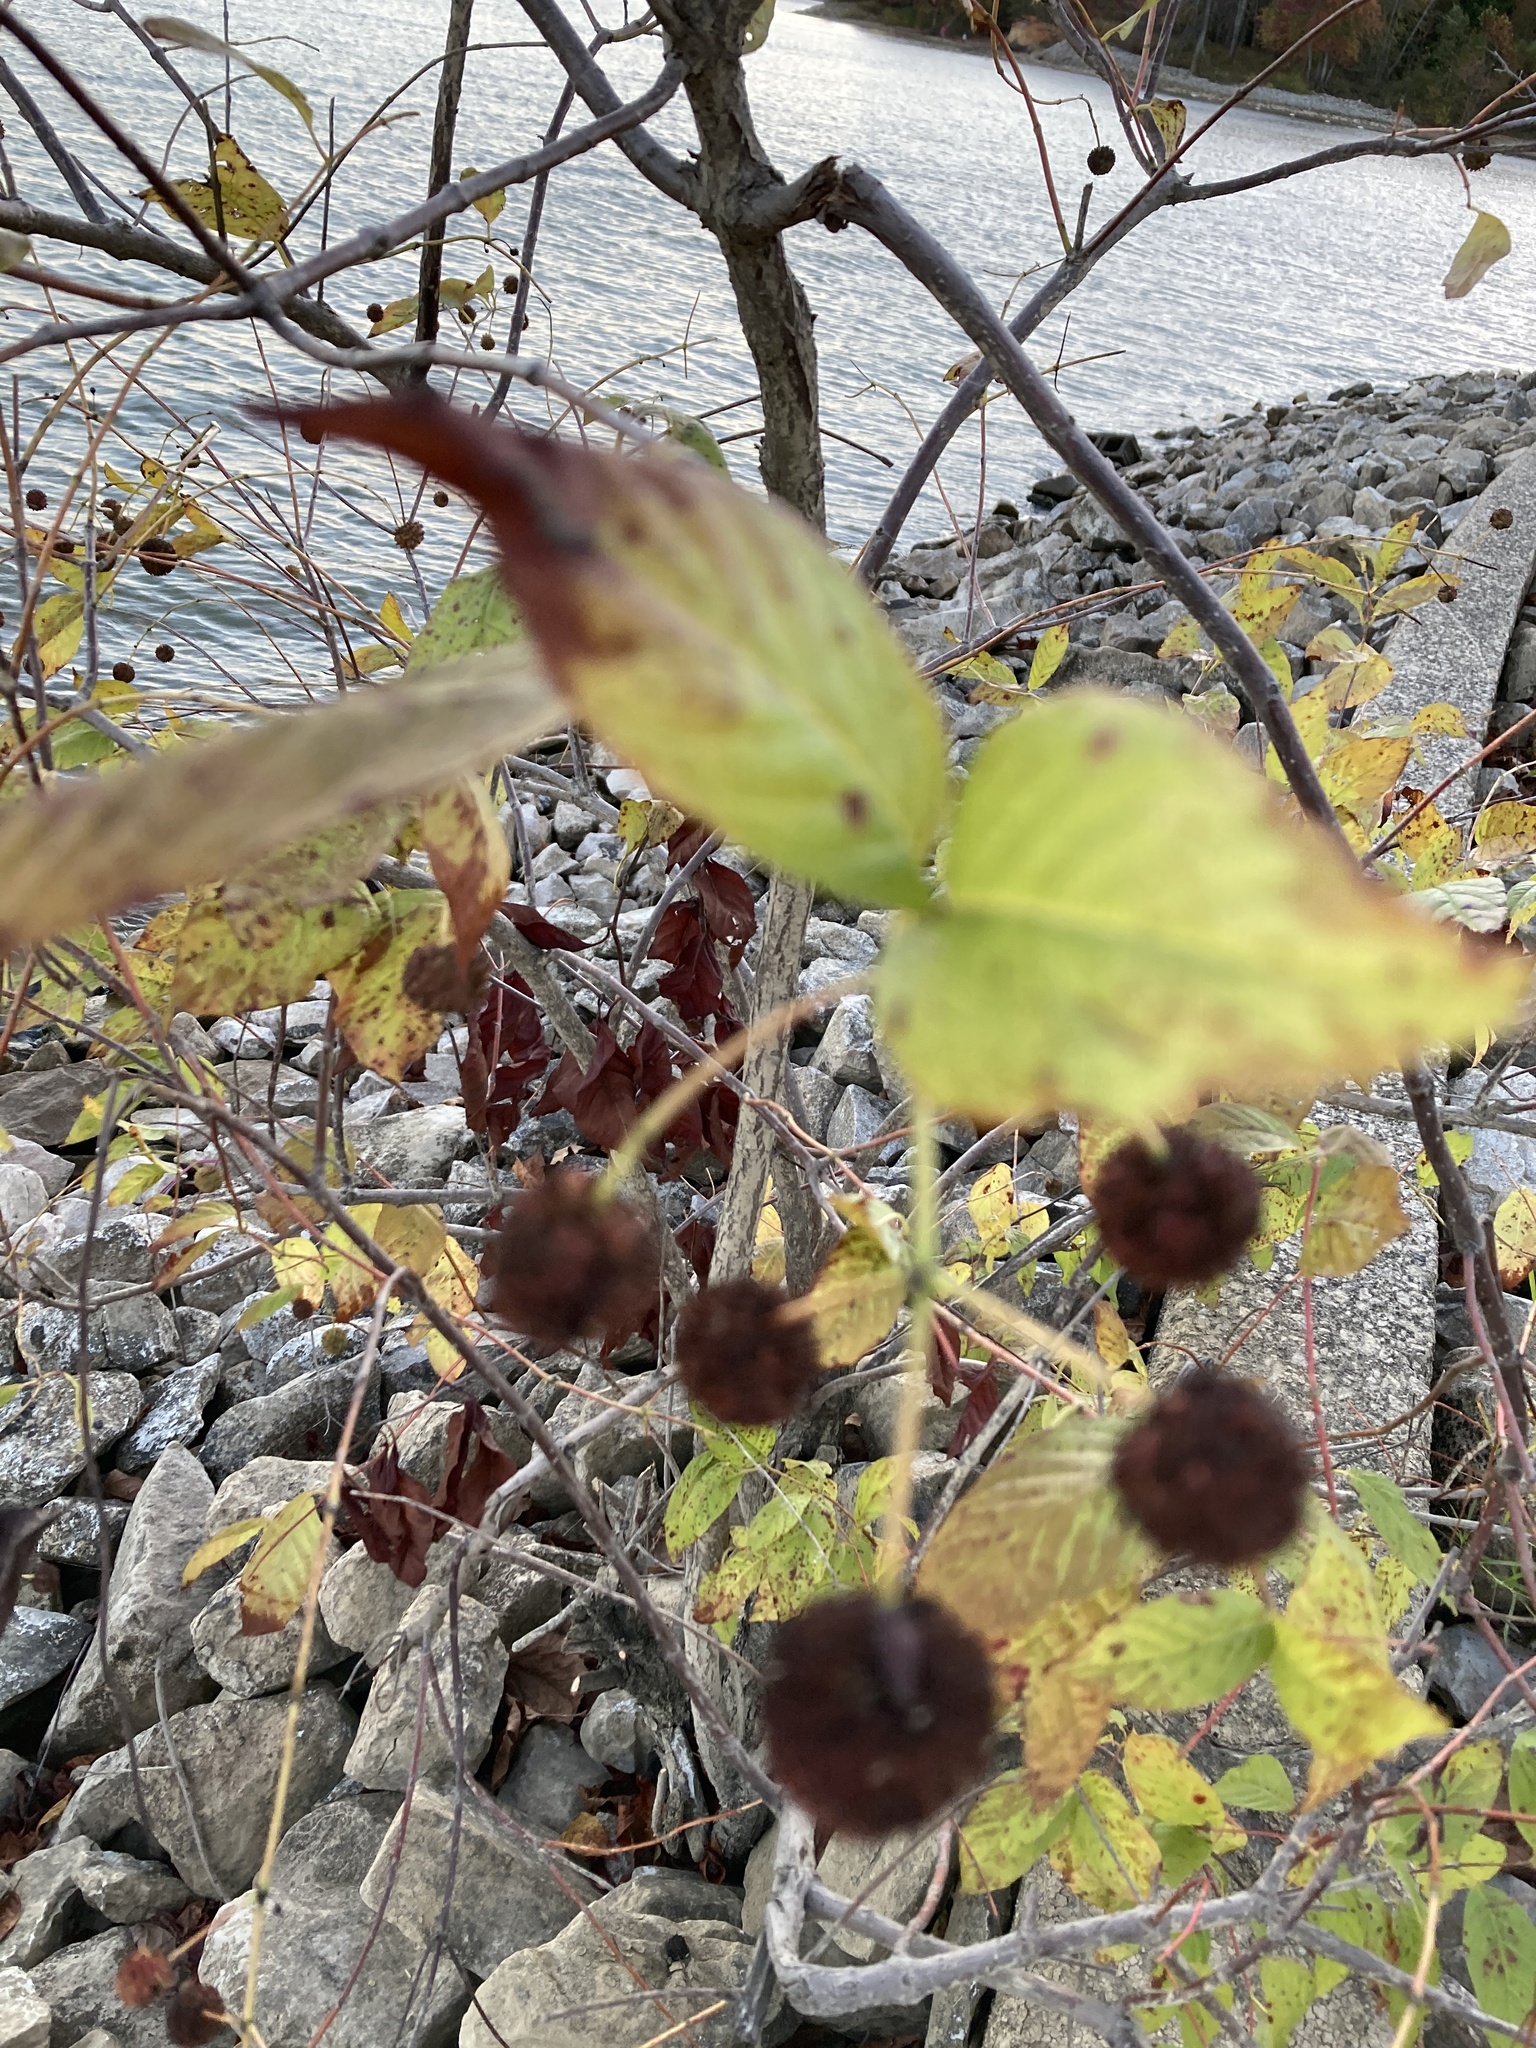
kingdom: Plantae
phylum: Tracheophyta
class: Magnoliopsida
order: Gentianales
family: Rubiaceae
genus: Cephalanthus
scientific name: Cephalanthus occidentalis
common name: Button-willow
